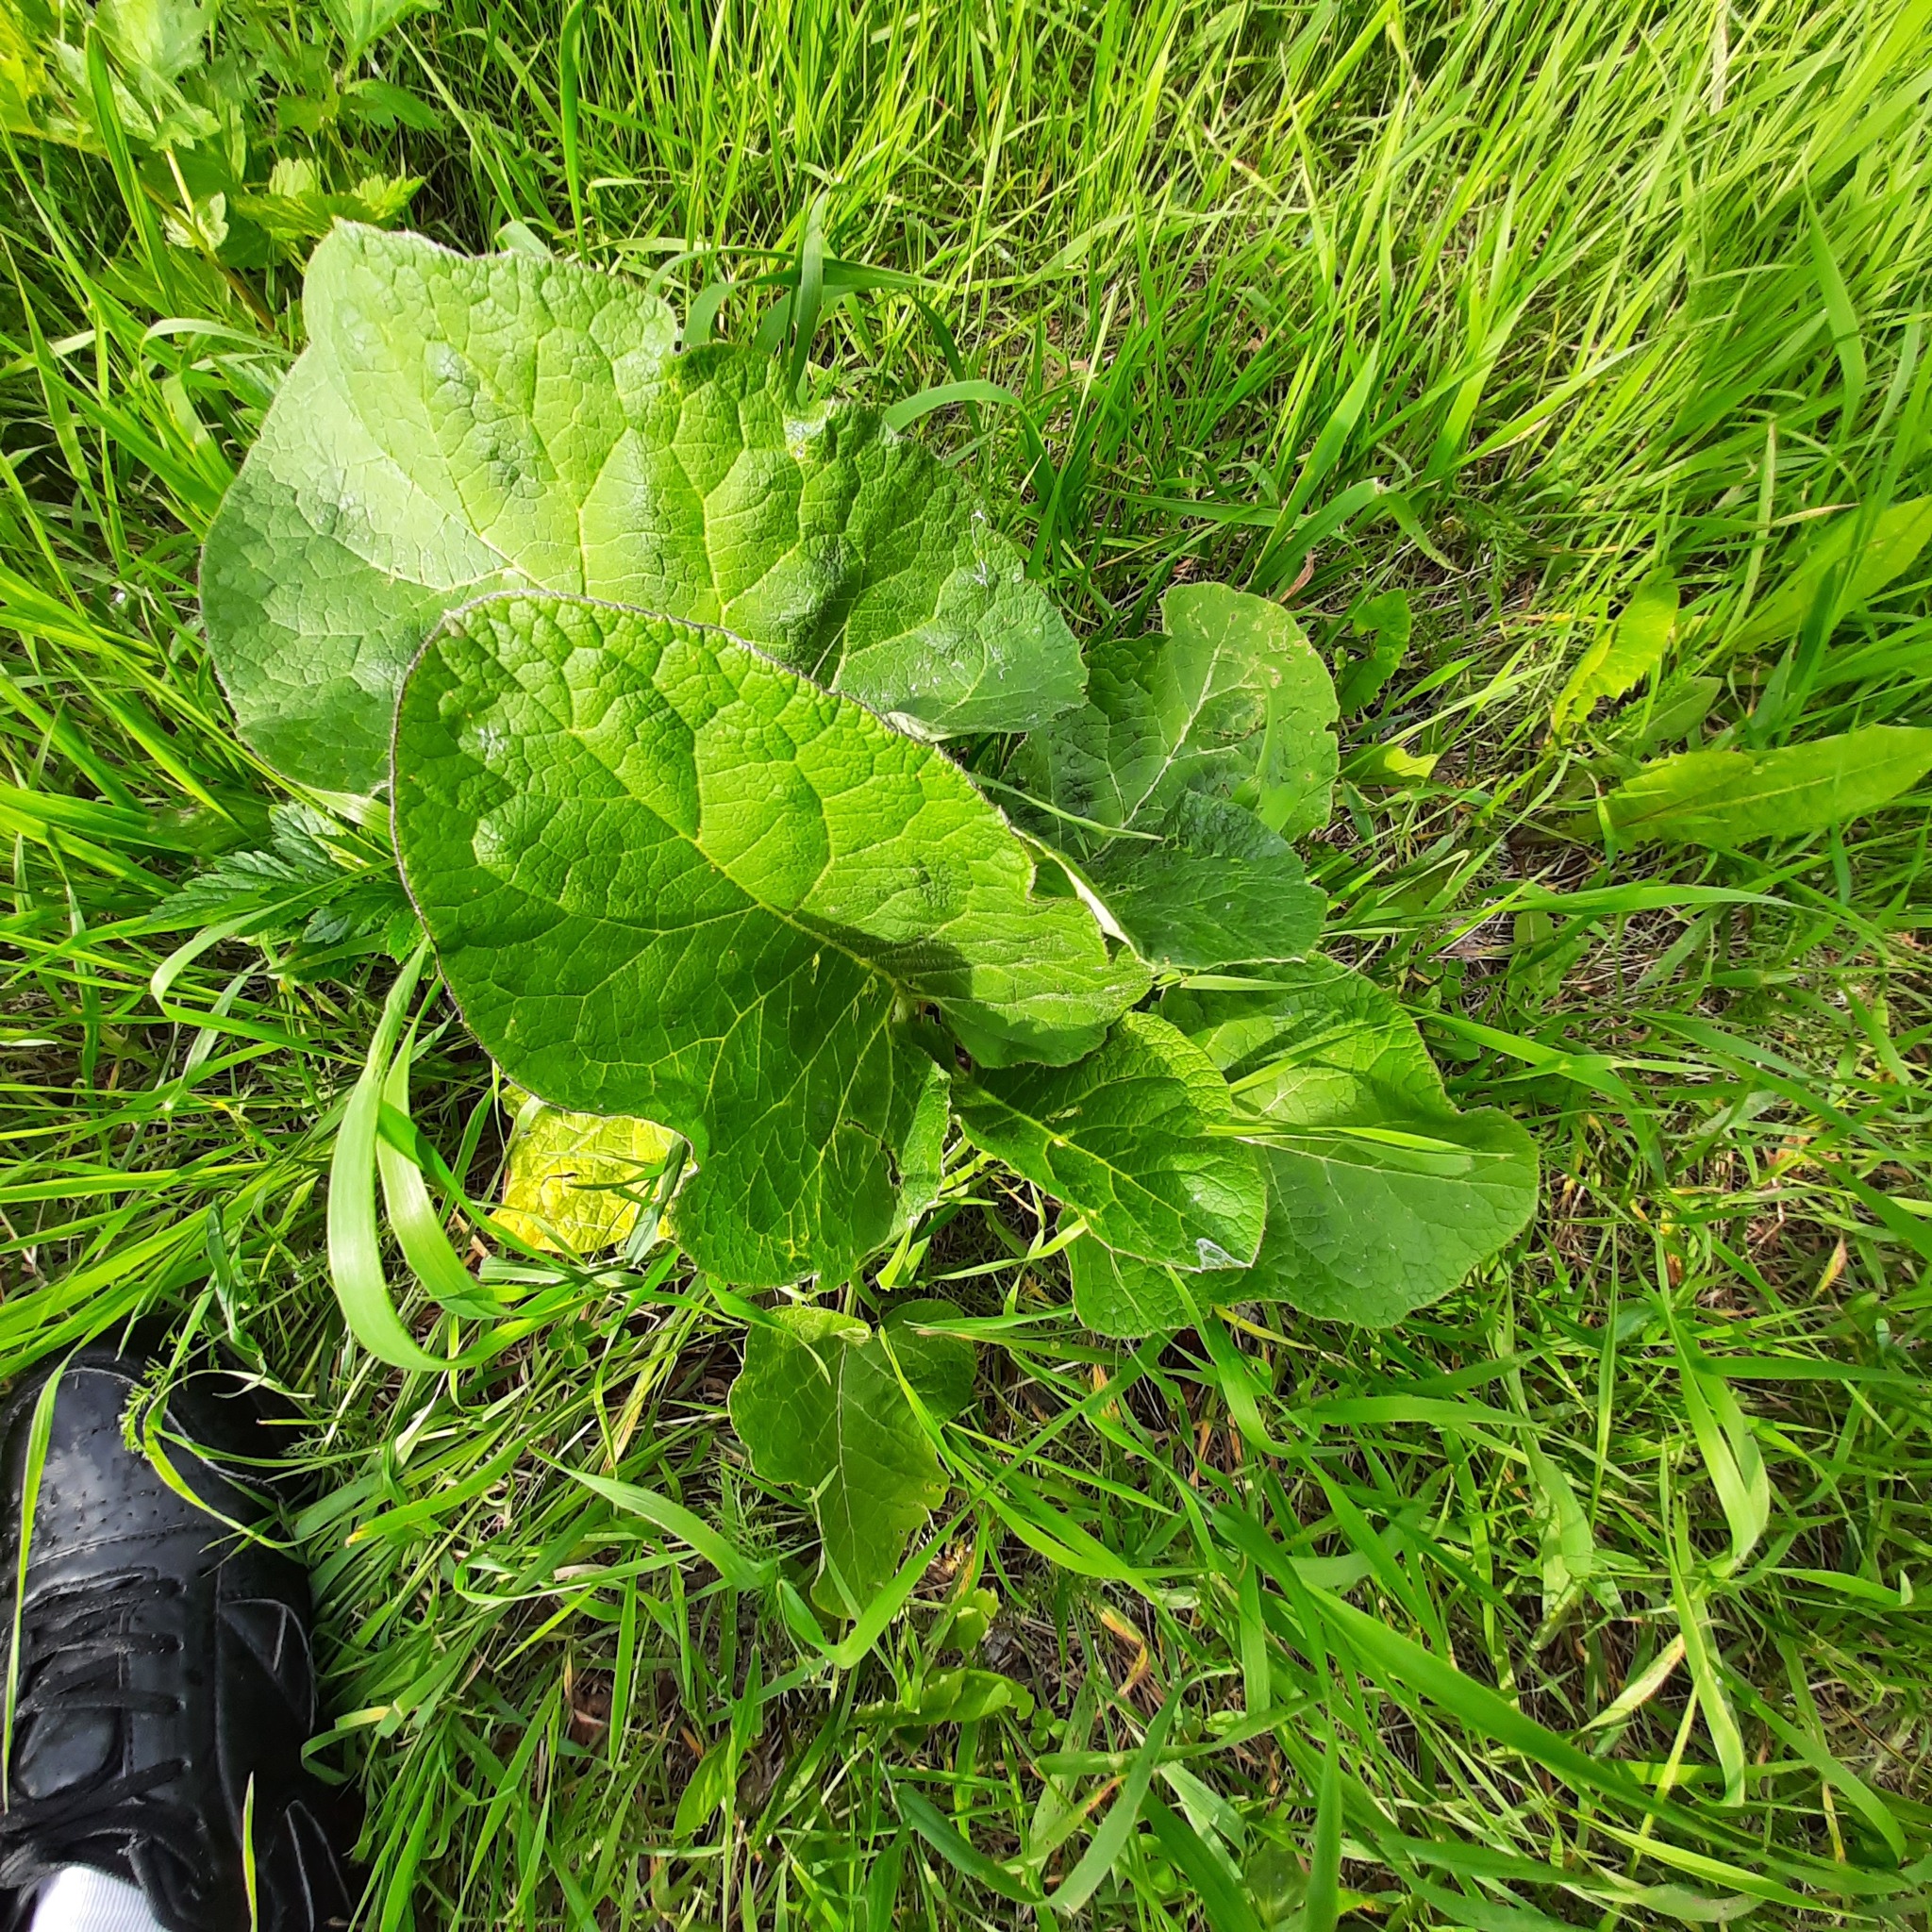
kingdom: Plantae
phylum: Tracheophyta
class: Magnoliopsida
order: Asterales
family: Asteraceae
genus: Arctium
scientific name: Arctium tomentosum
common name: Woolly burdock
